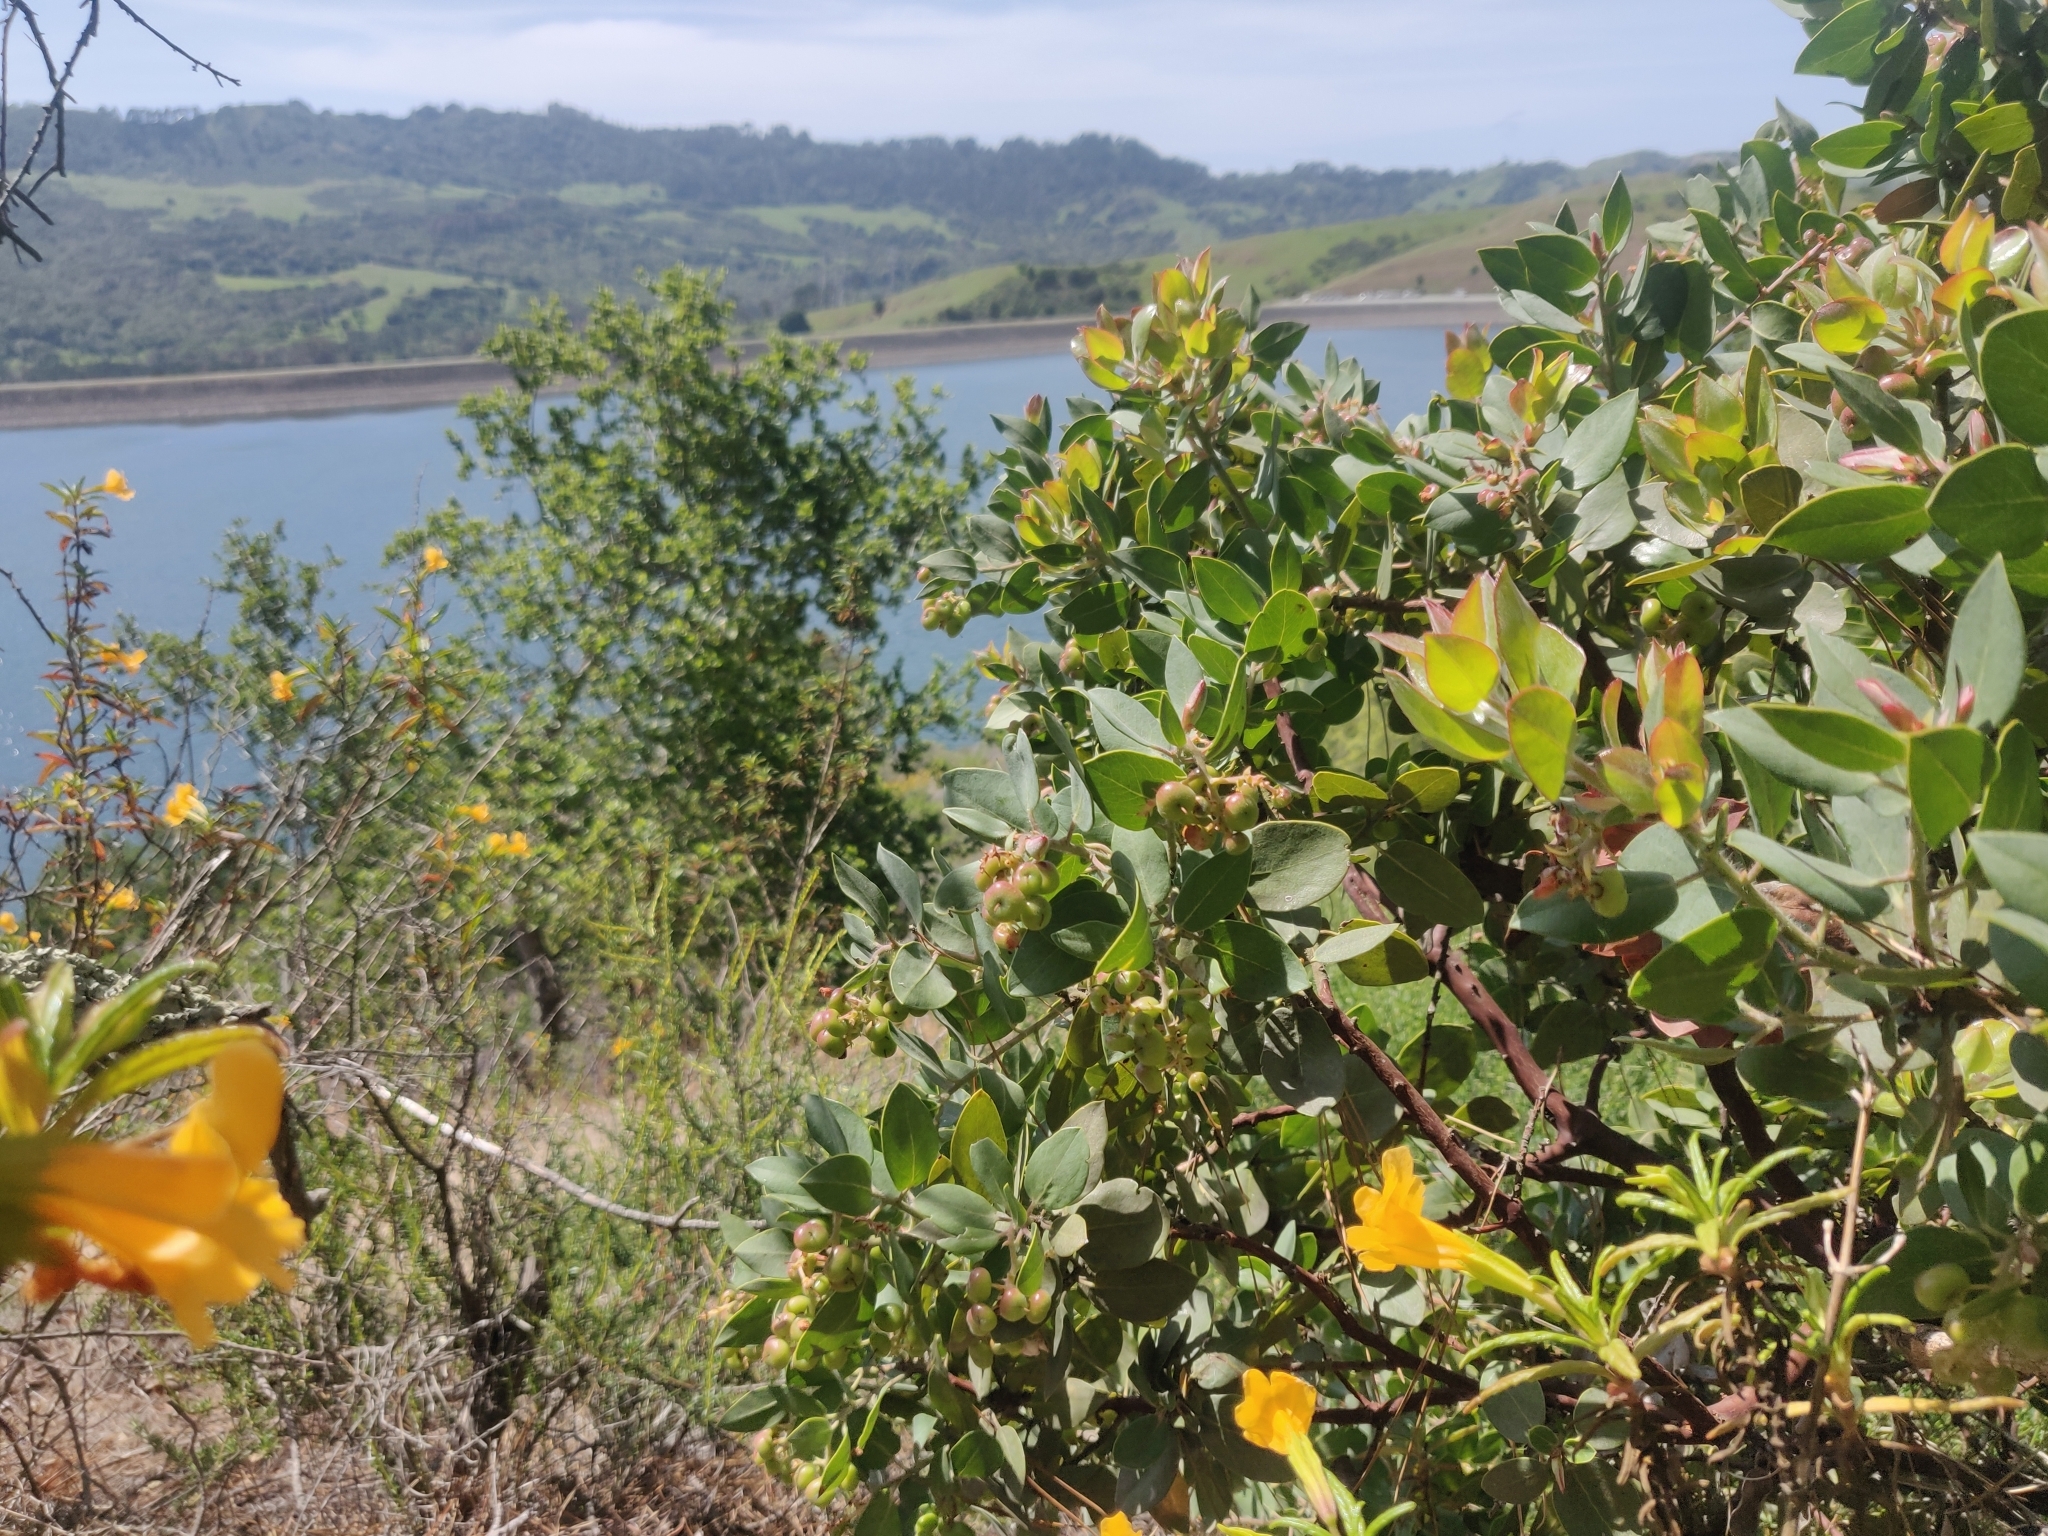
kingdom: Plantae
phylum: Tracheophyta
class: Magnoliopsida
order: Ericales
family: Ericaceae
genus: Arctostaphylos
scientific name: Arctostaphylos crustacea
